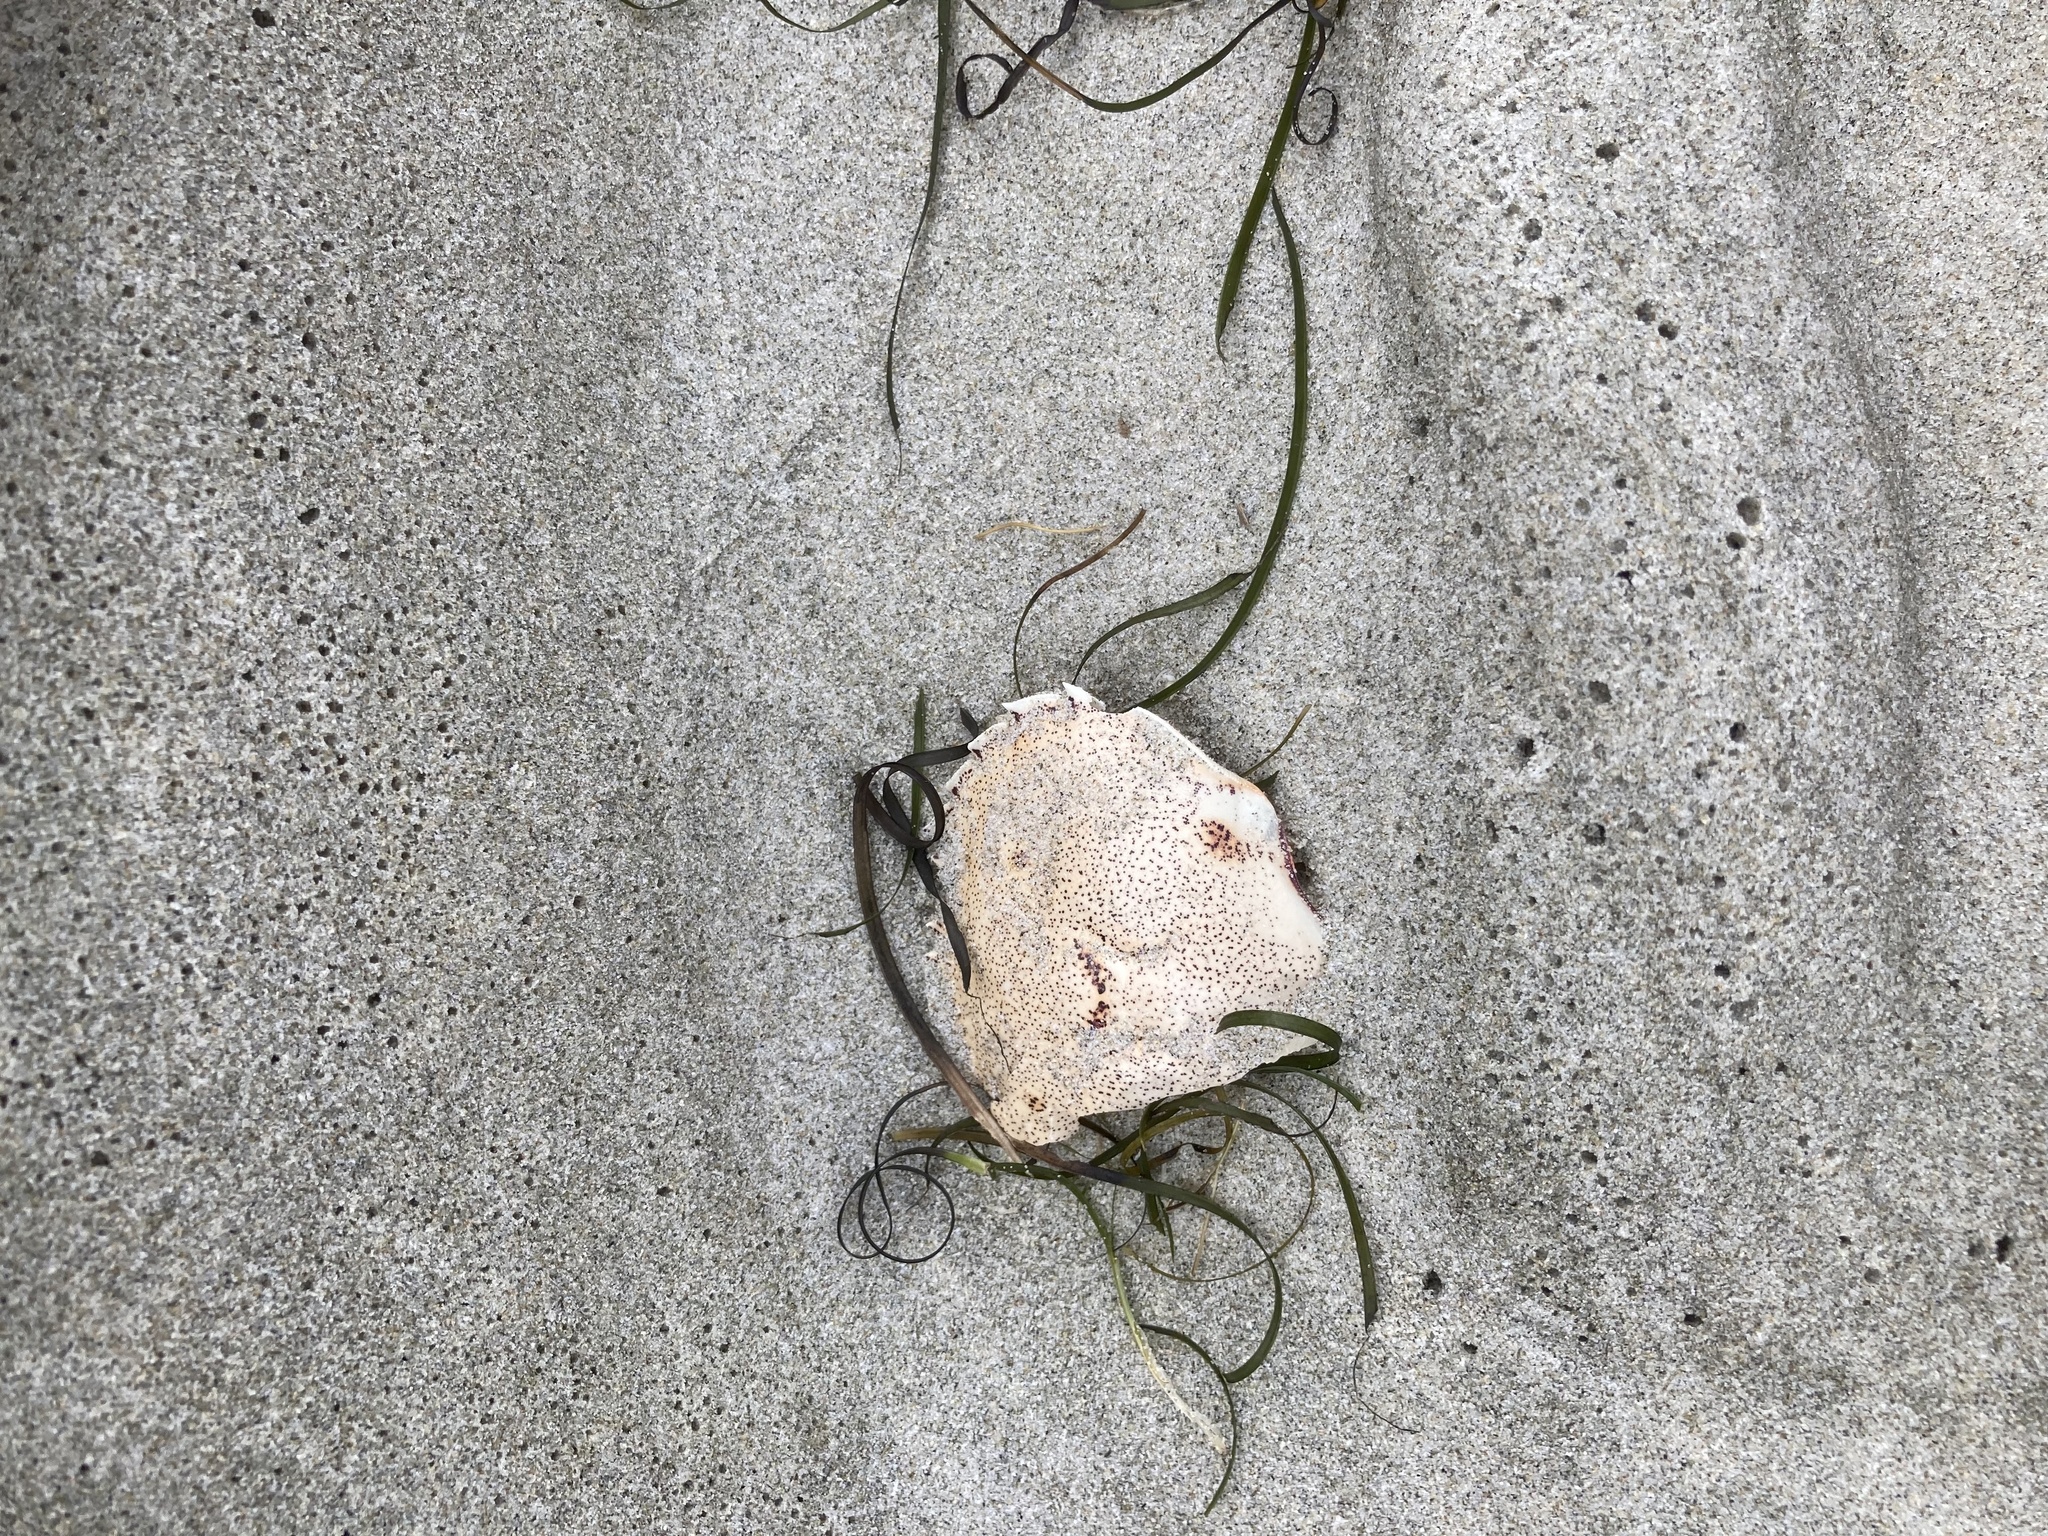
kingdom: Animalia
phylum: Arthropoda
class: Malacostraca
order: Decapoda
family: Ovalipidae
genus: Ovalipes
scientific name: Ovalipes catharus
